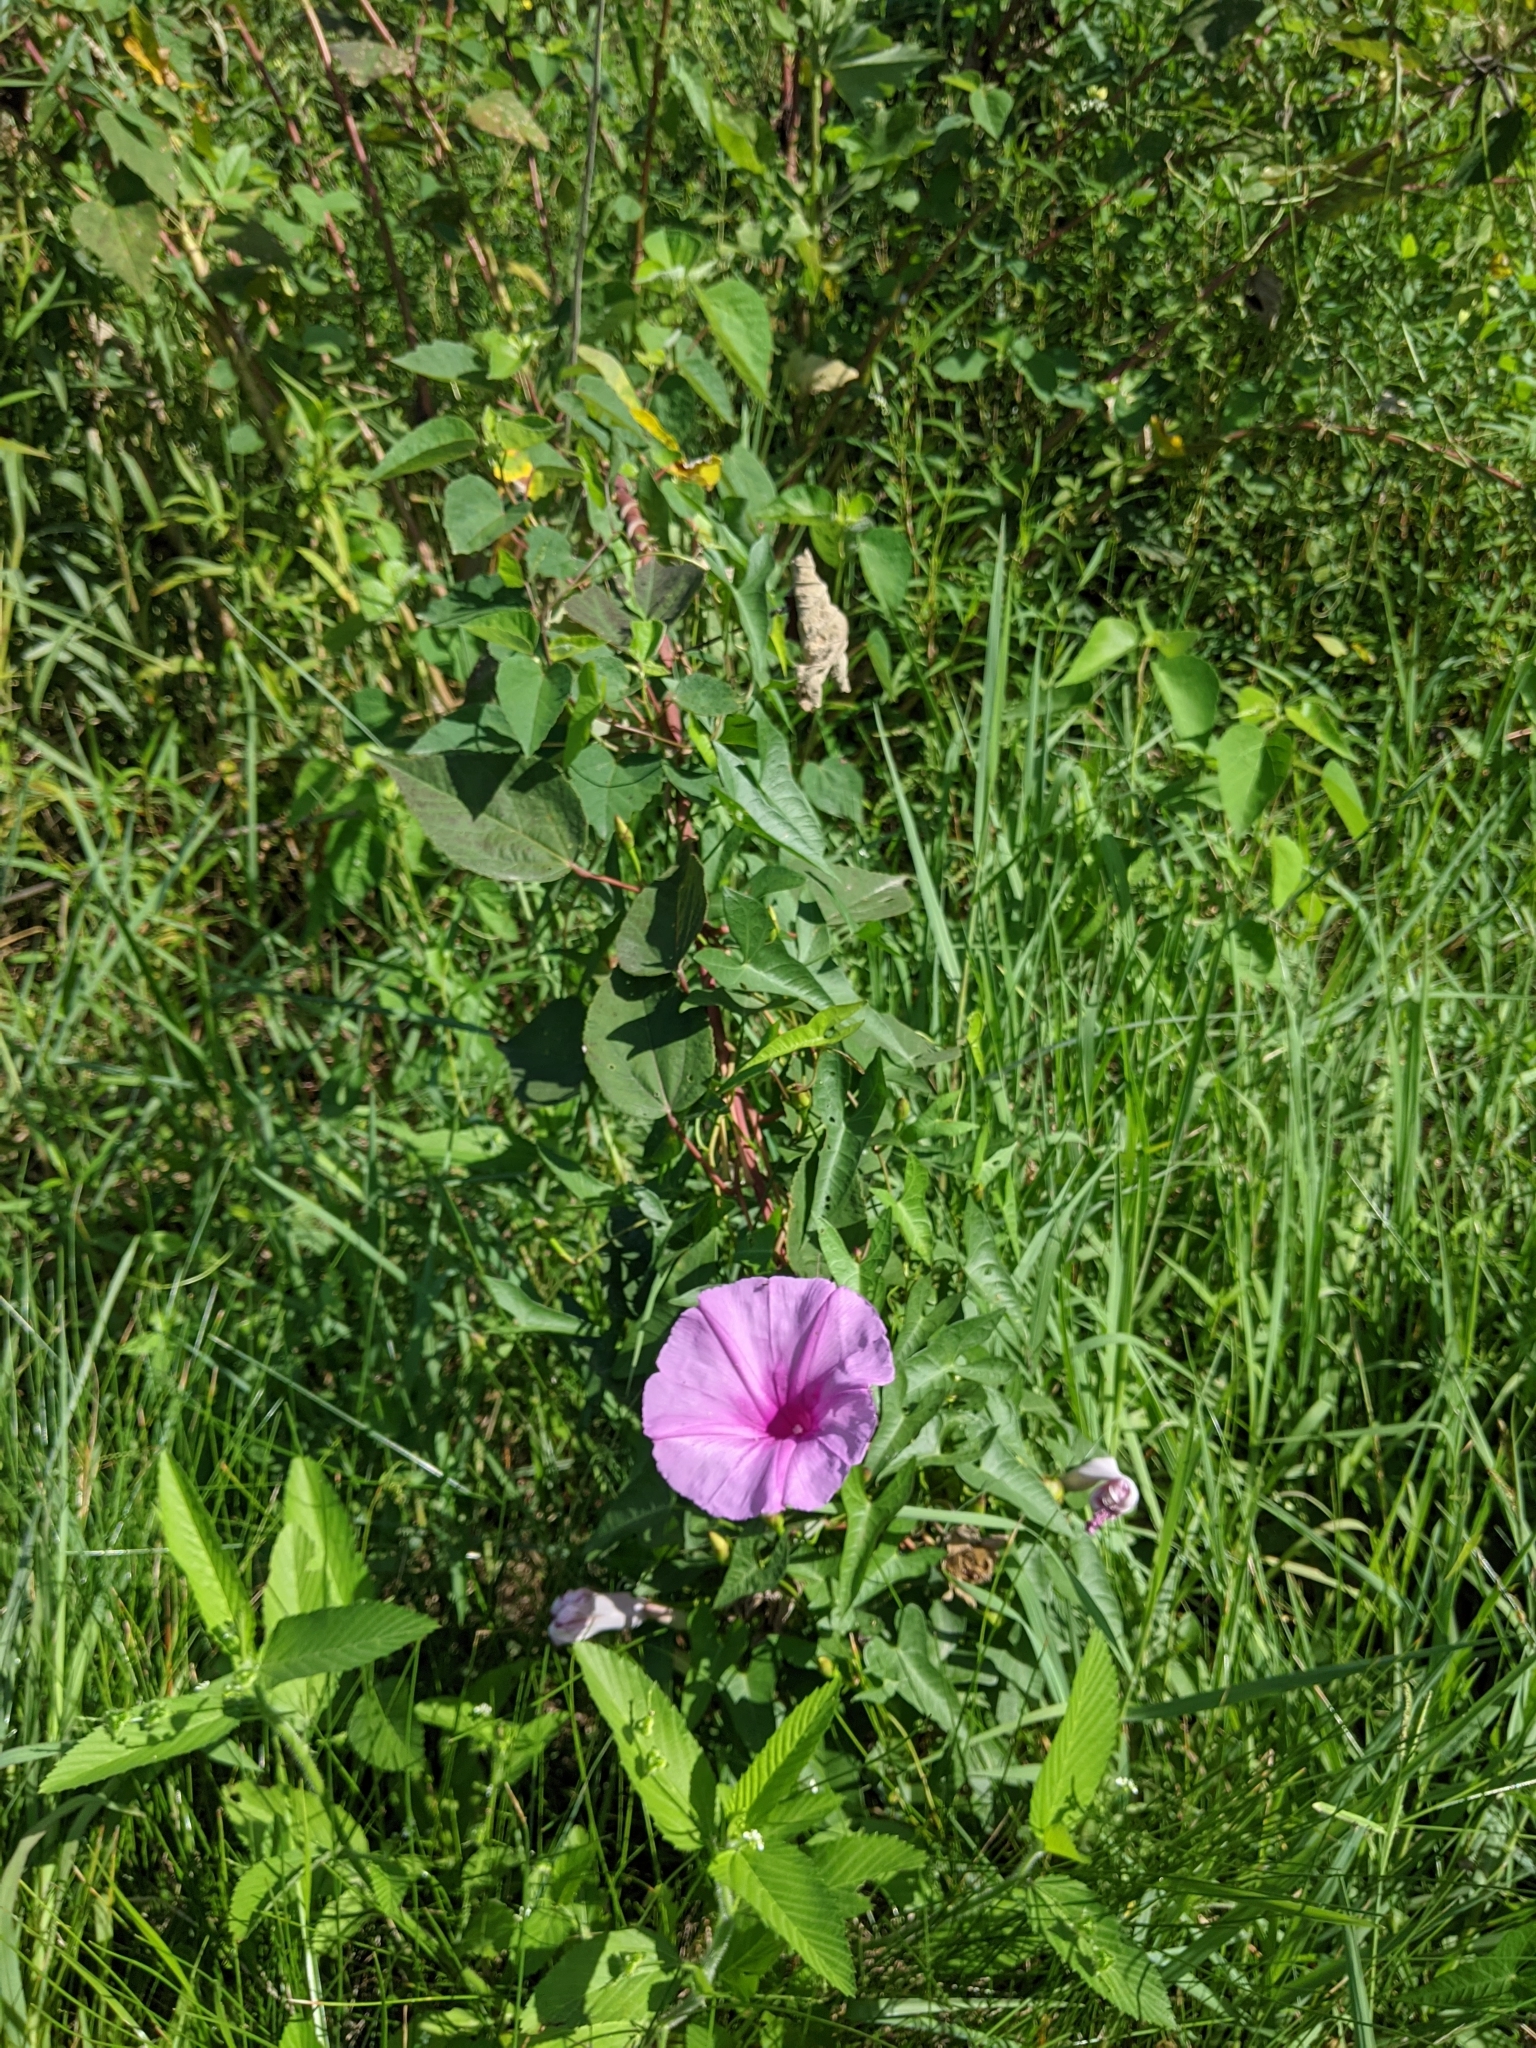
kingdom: Plantae
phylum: Tracheophyta
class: Magnoliopsida
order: Solanales
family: Convolvulaceae
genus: Ipomoea
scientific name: Ipomoea sagittata
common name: Saltmarsh morning glory
